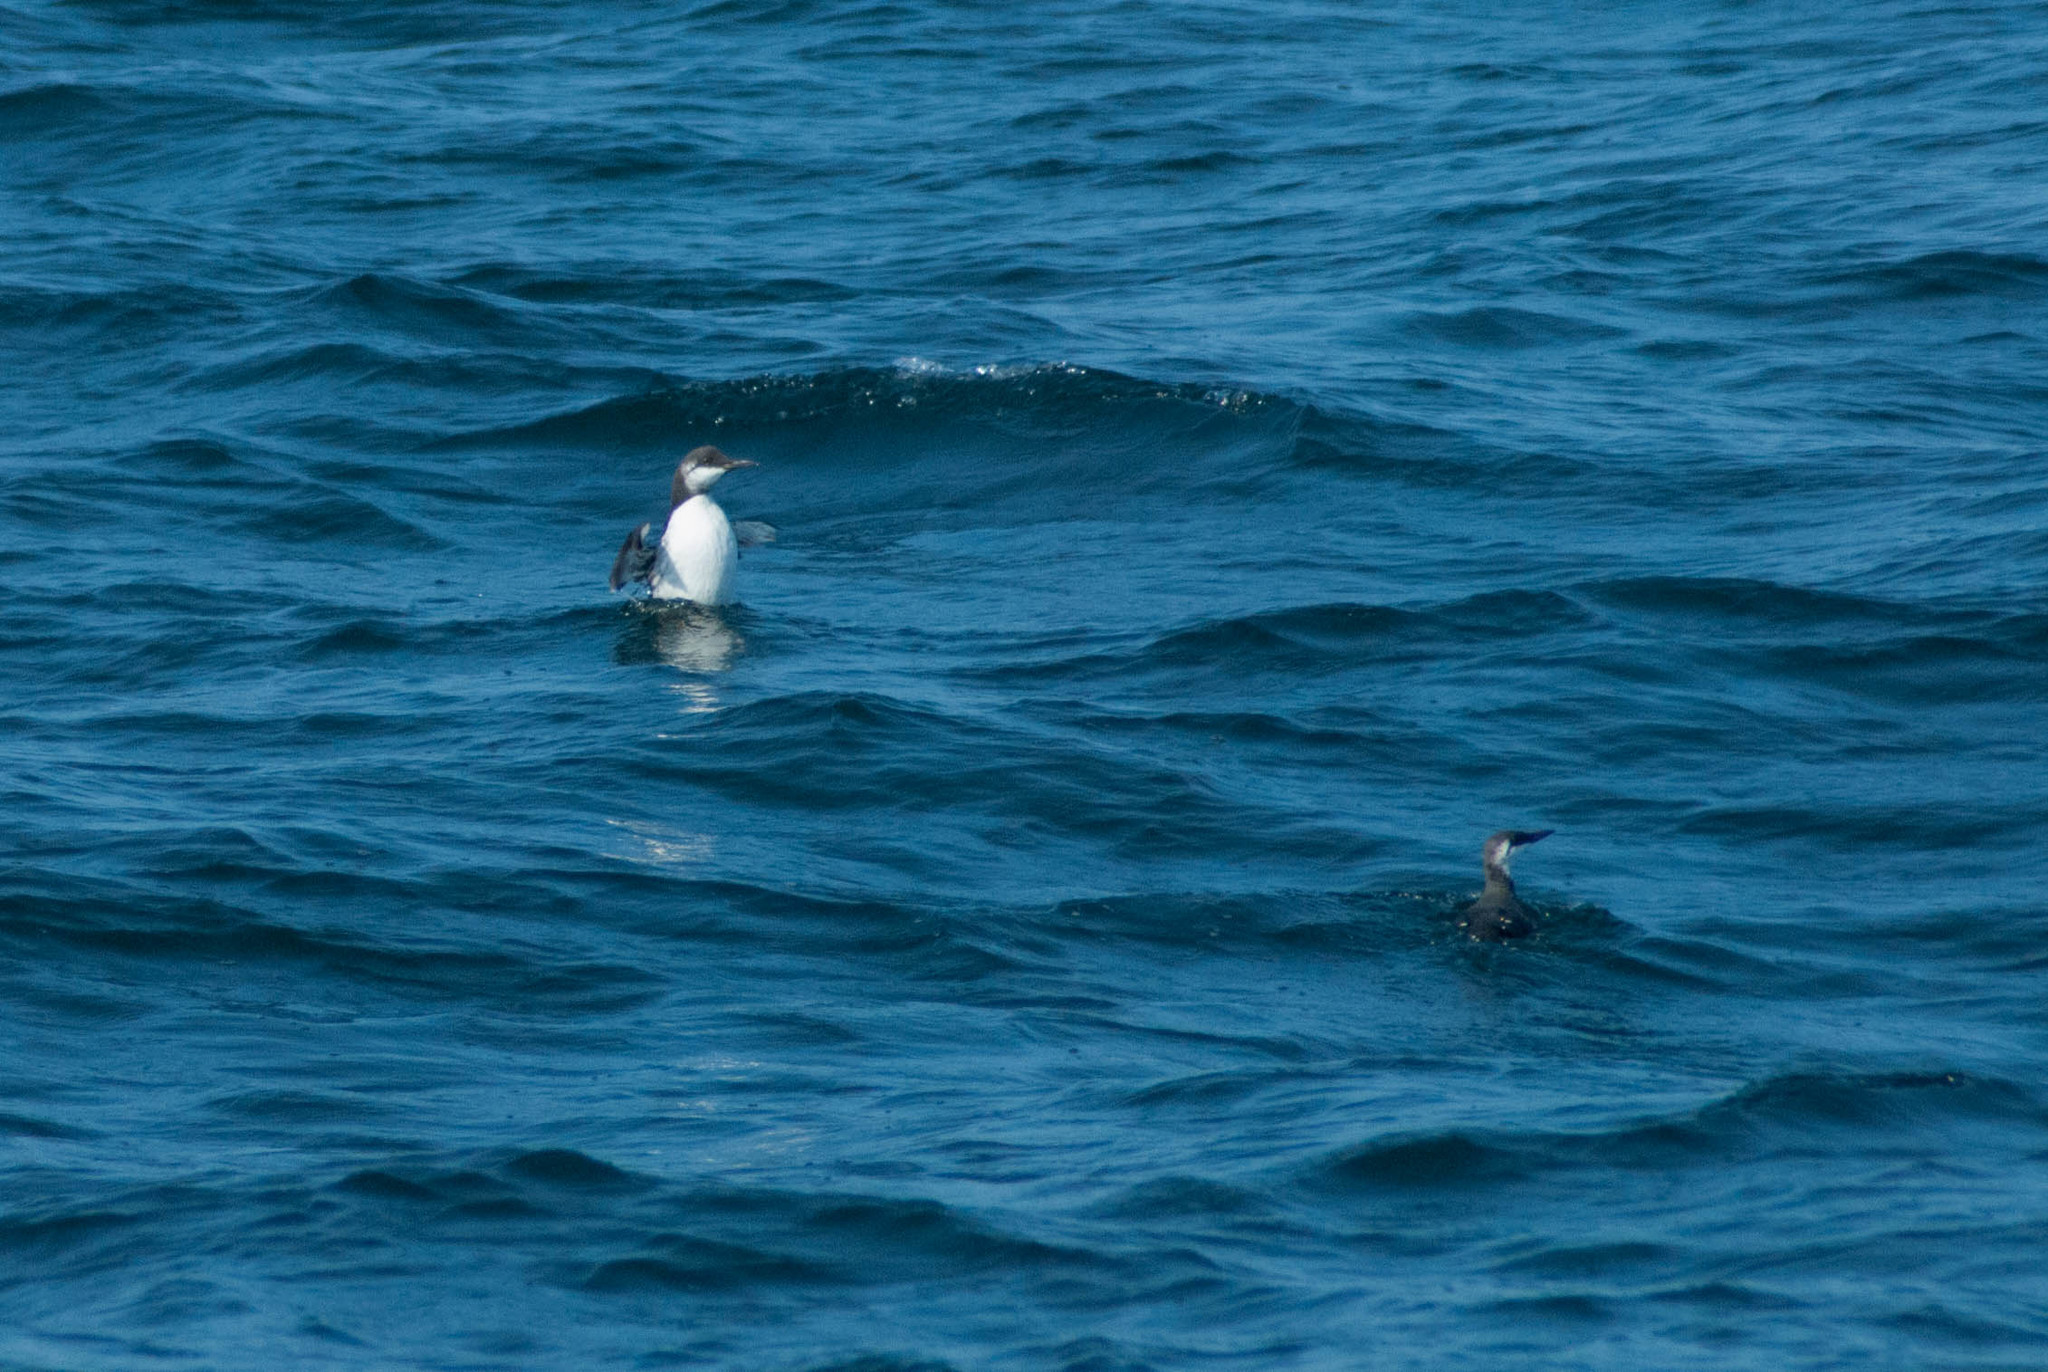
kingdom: Animalia
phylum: Chordata
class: Aves
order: Charadriiformes
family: Alcidae
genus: Uria
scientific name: Uria aalge
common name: Common murre
